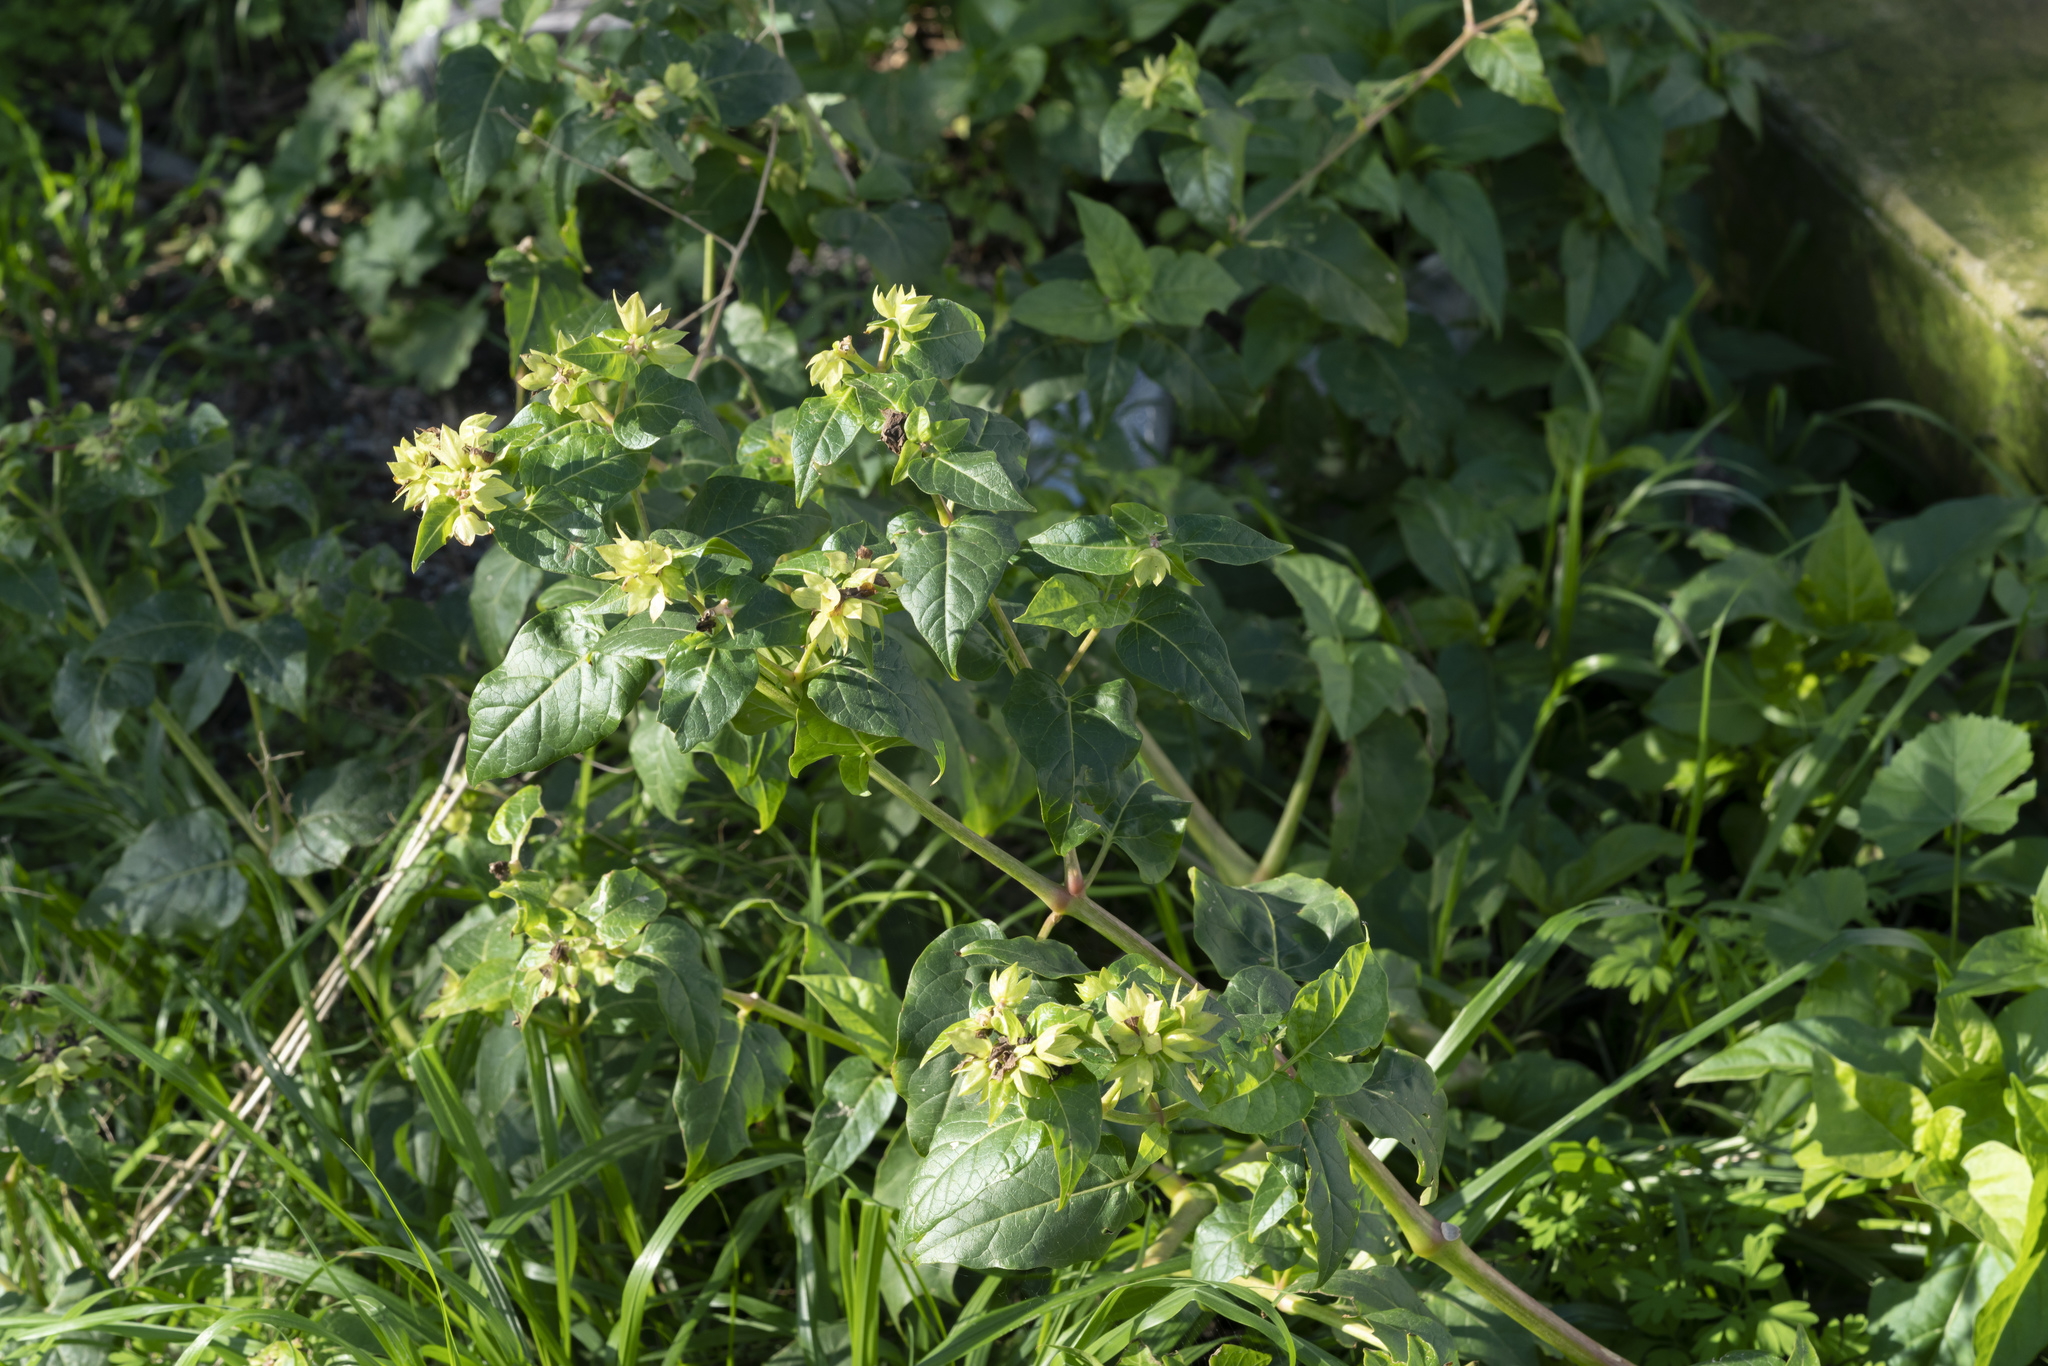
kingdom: Plantae
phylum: Tracheophyta
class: Magnoliopsida
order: Caryophyllales
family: Nyctaginaceae
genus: Mirabilis
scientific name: Mirabilis jalapa
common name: Marvel-of-peru
